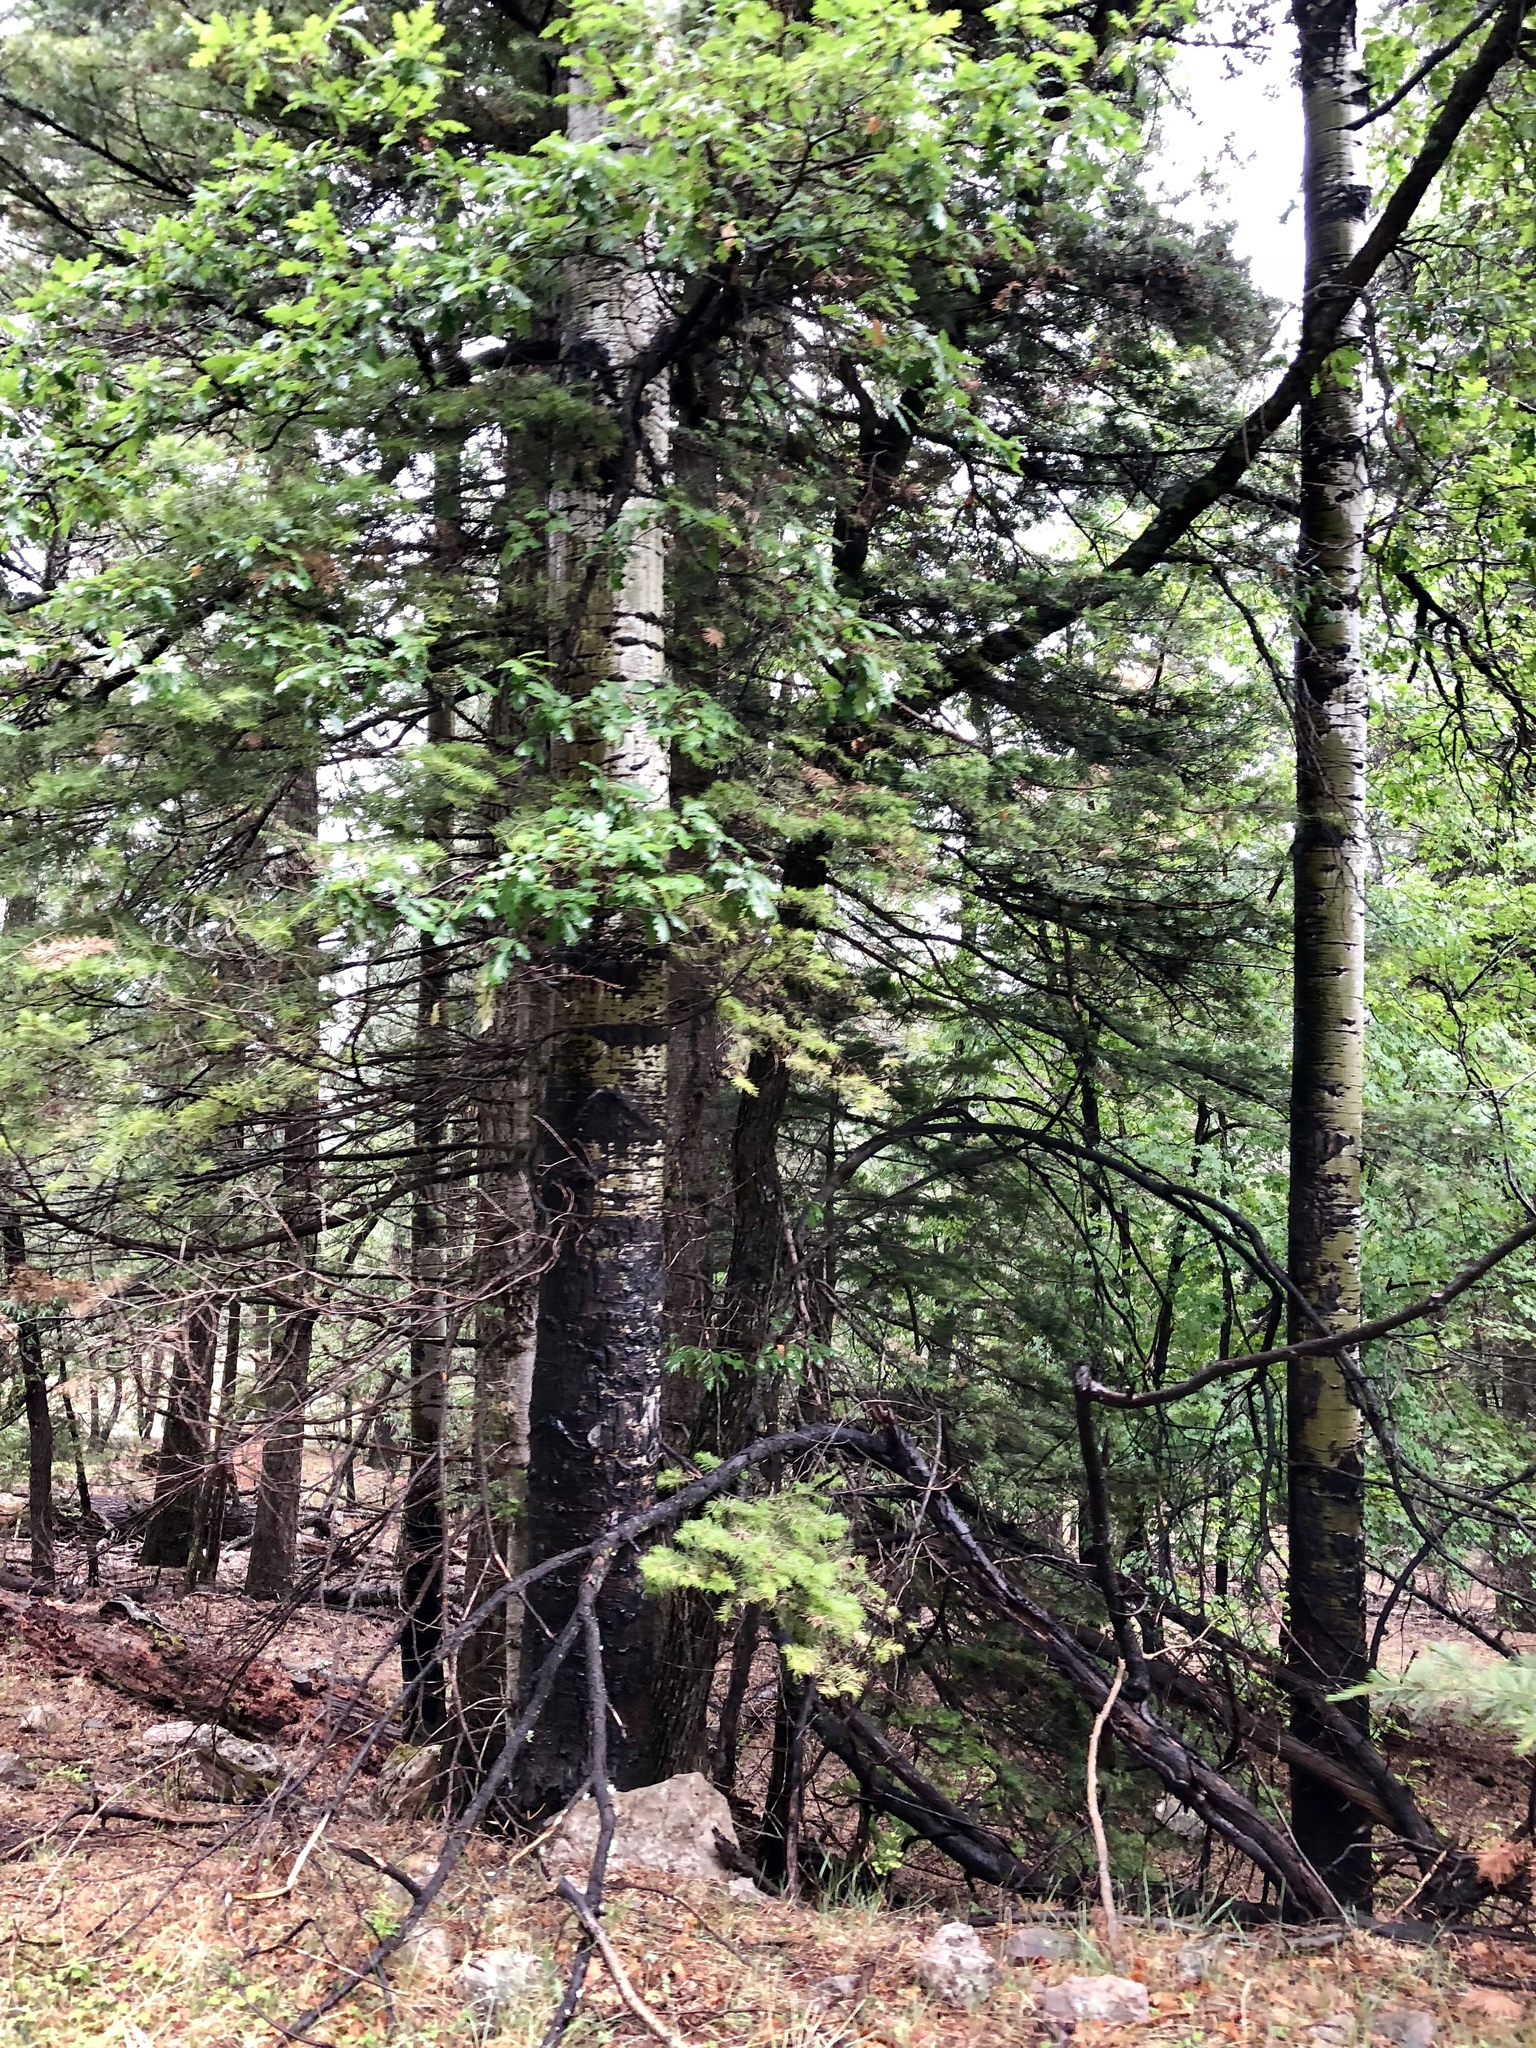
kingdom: Plantae
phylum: Tracheophyta
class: Magnoliopsida
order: Malpighiales
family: Salicaceae
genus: Populus
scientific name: Populus tremuloides
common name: Quaking aspen
